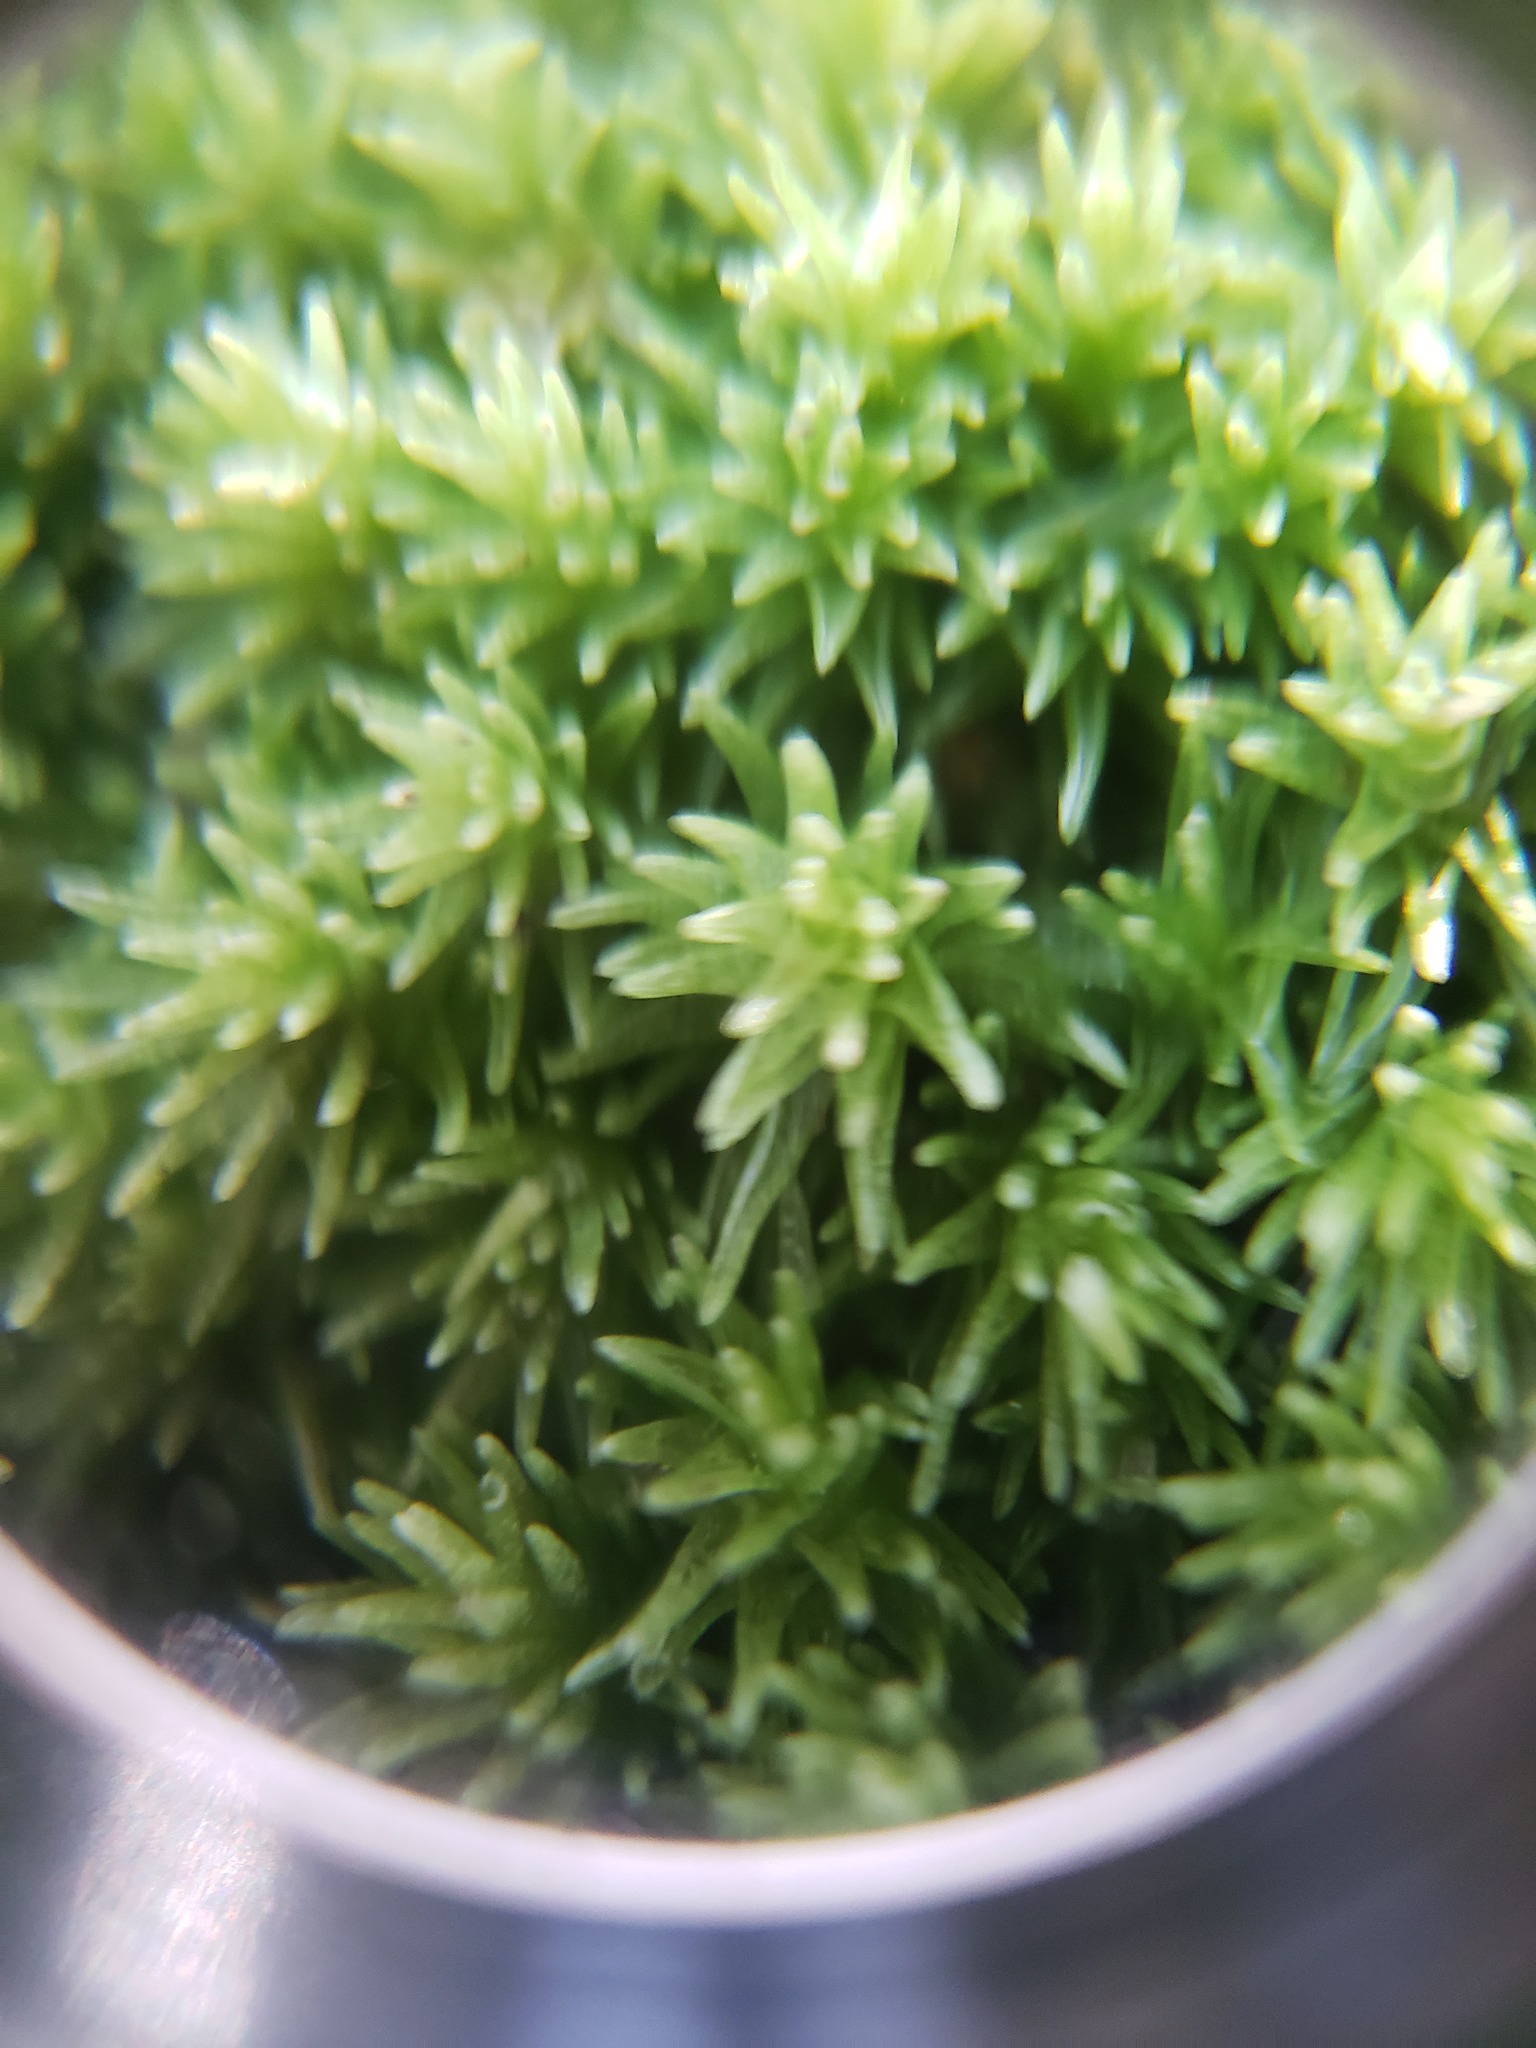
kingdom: Plantae
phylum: Bryophyta
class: Bryopsida
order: Dicranales
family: Leucobryaceae
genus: Leucobryum
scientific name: Leucobryum glaucum
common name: Large white-moss
